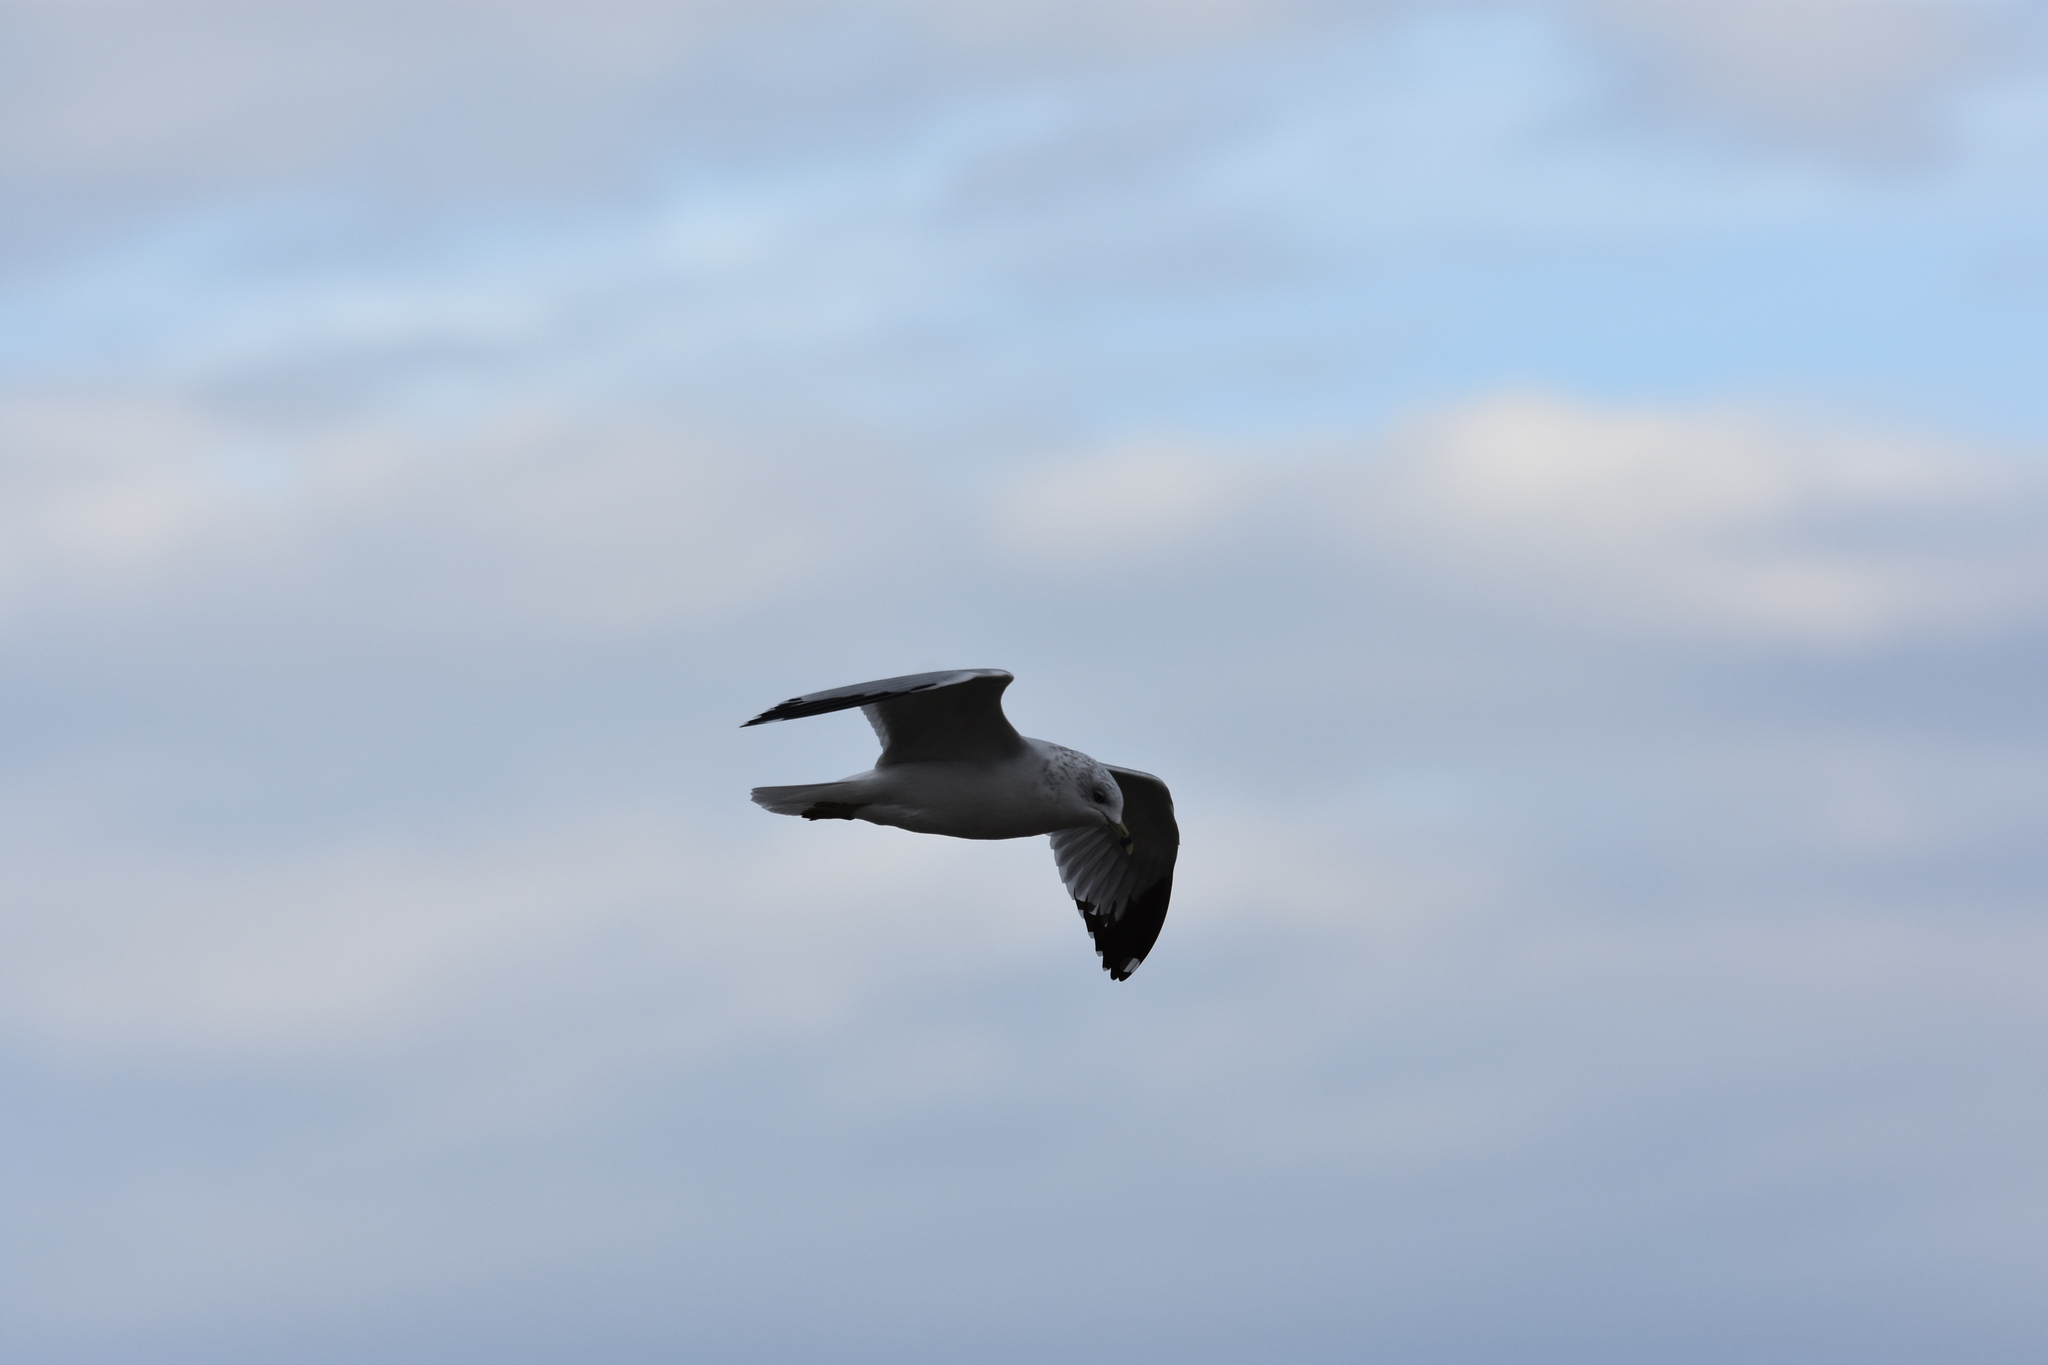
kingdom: Animalia
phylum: Chordata
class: Aves
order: Charadriiformes
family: Laridae
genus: Larus
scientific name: Larus delawarensis
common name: Ring-billed gull
